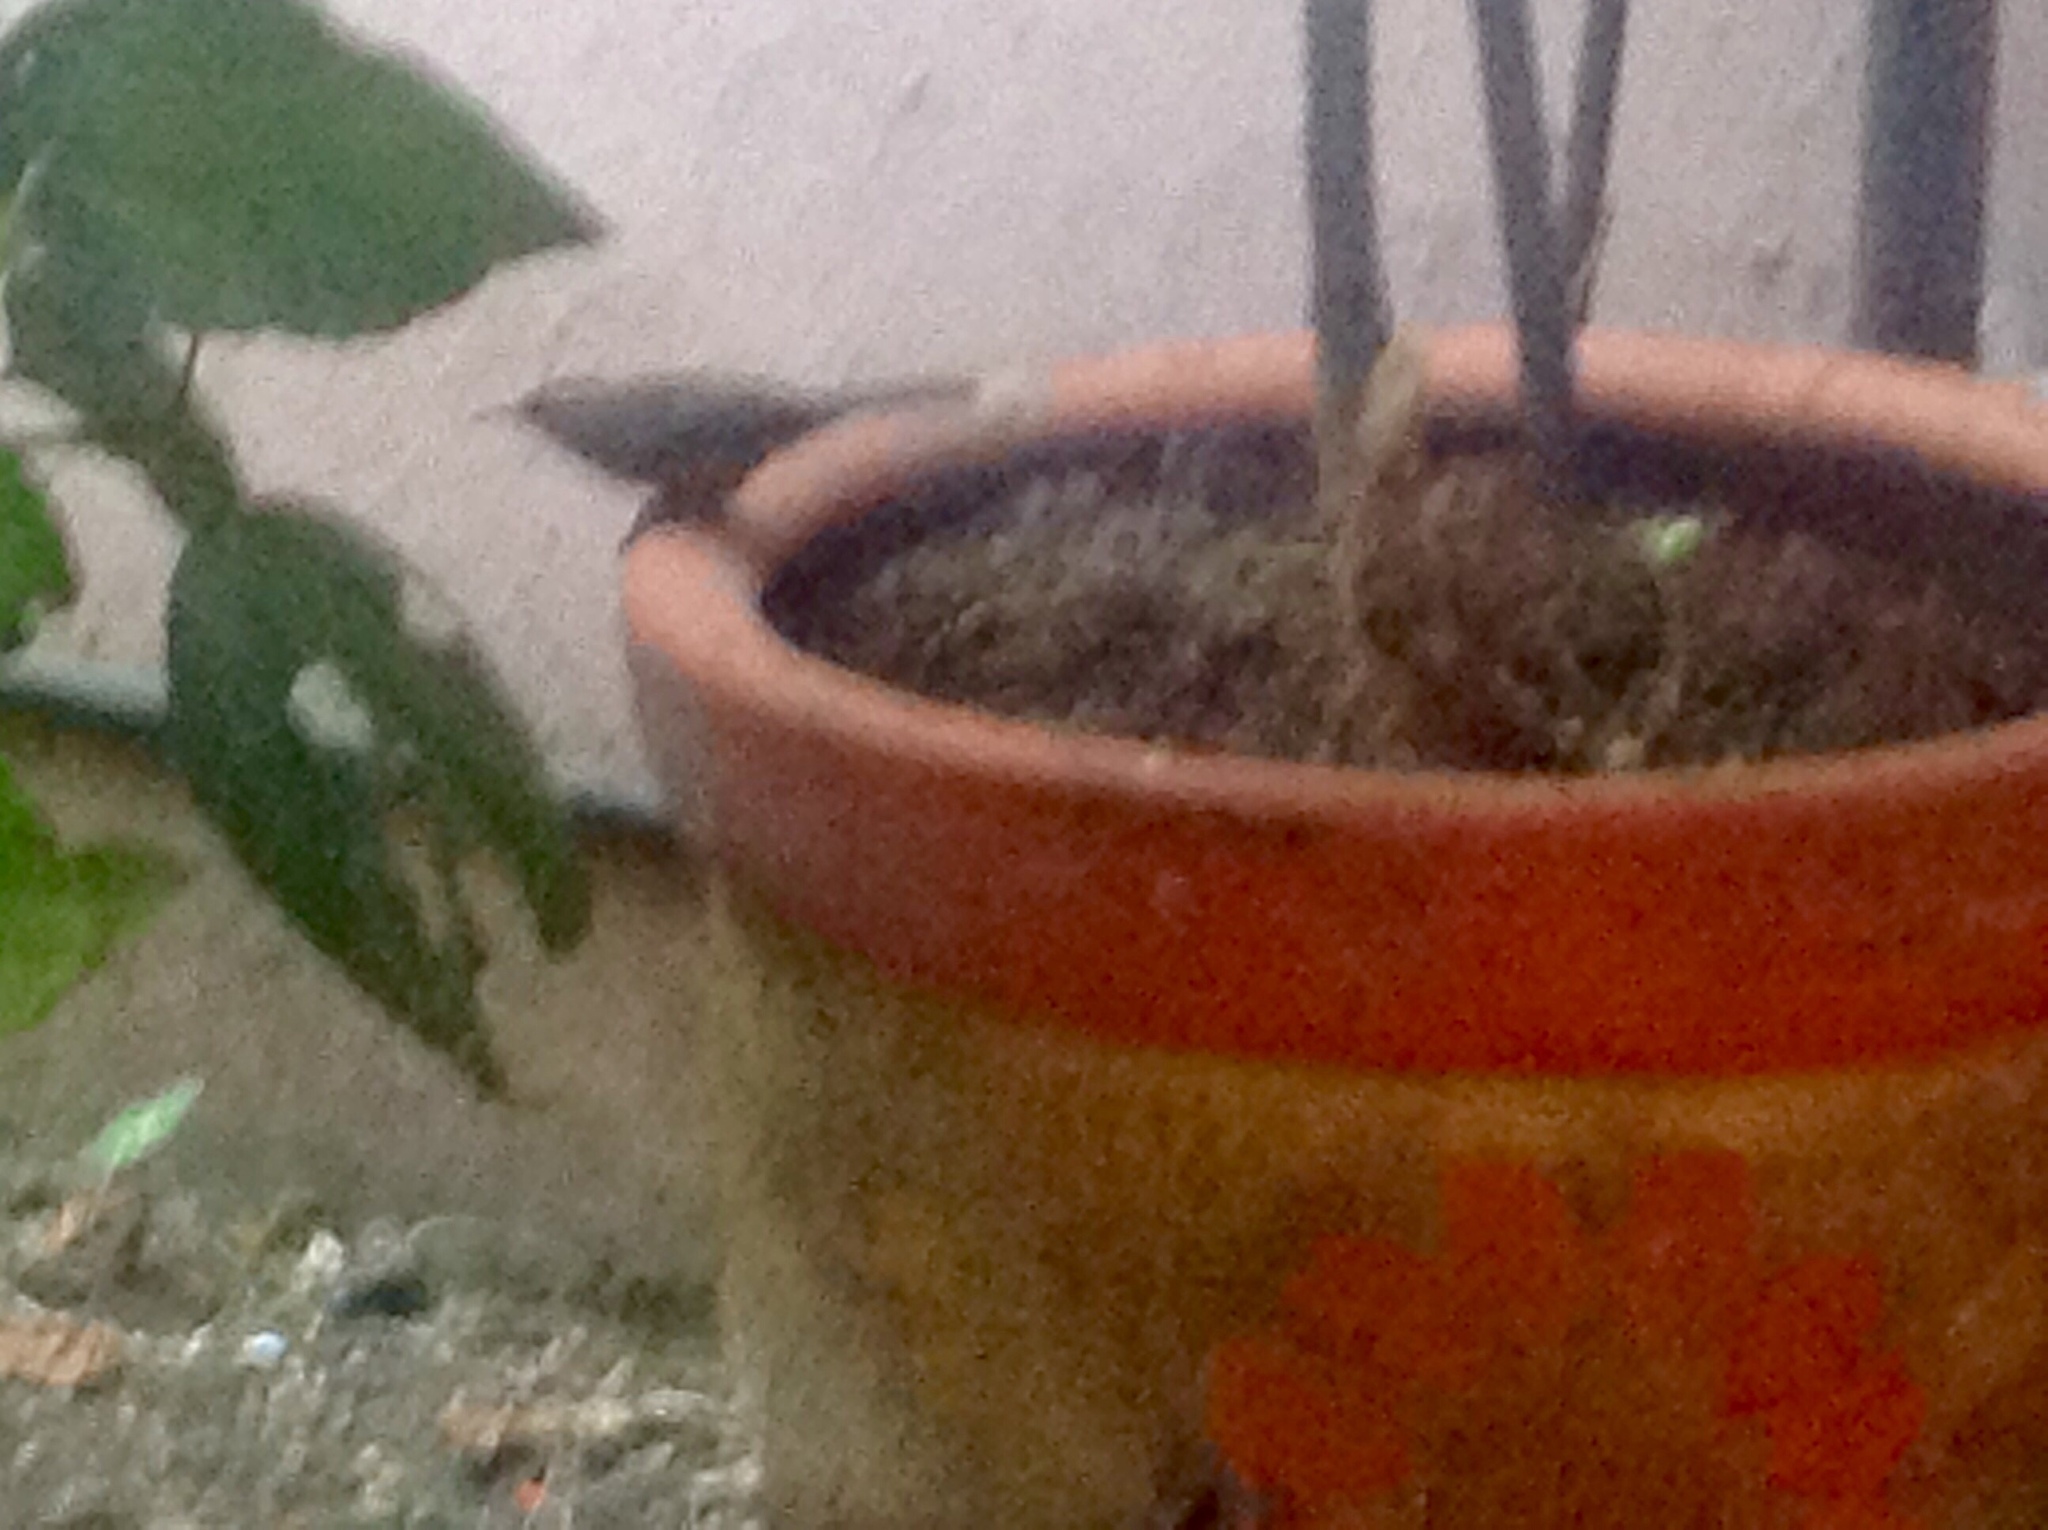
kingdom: Animalia
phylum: Chordata
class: Aves
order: Passeriformes
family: Troglodytidae
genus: Thryomanes
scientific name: Thryomanes bewickii
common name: Bewick's wren
